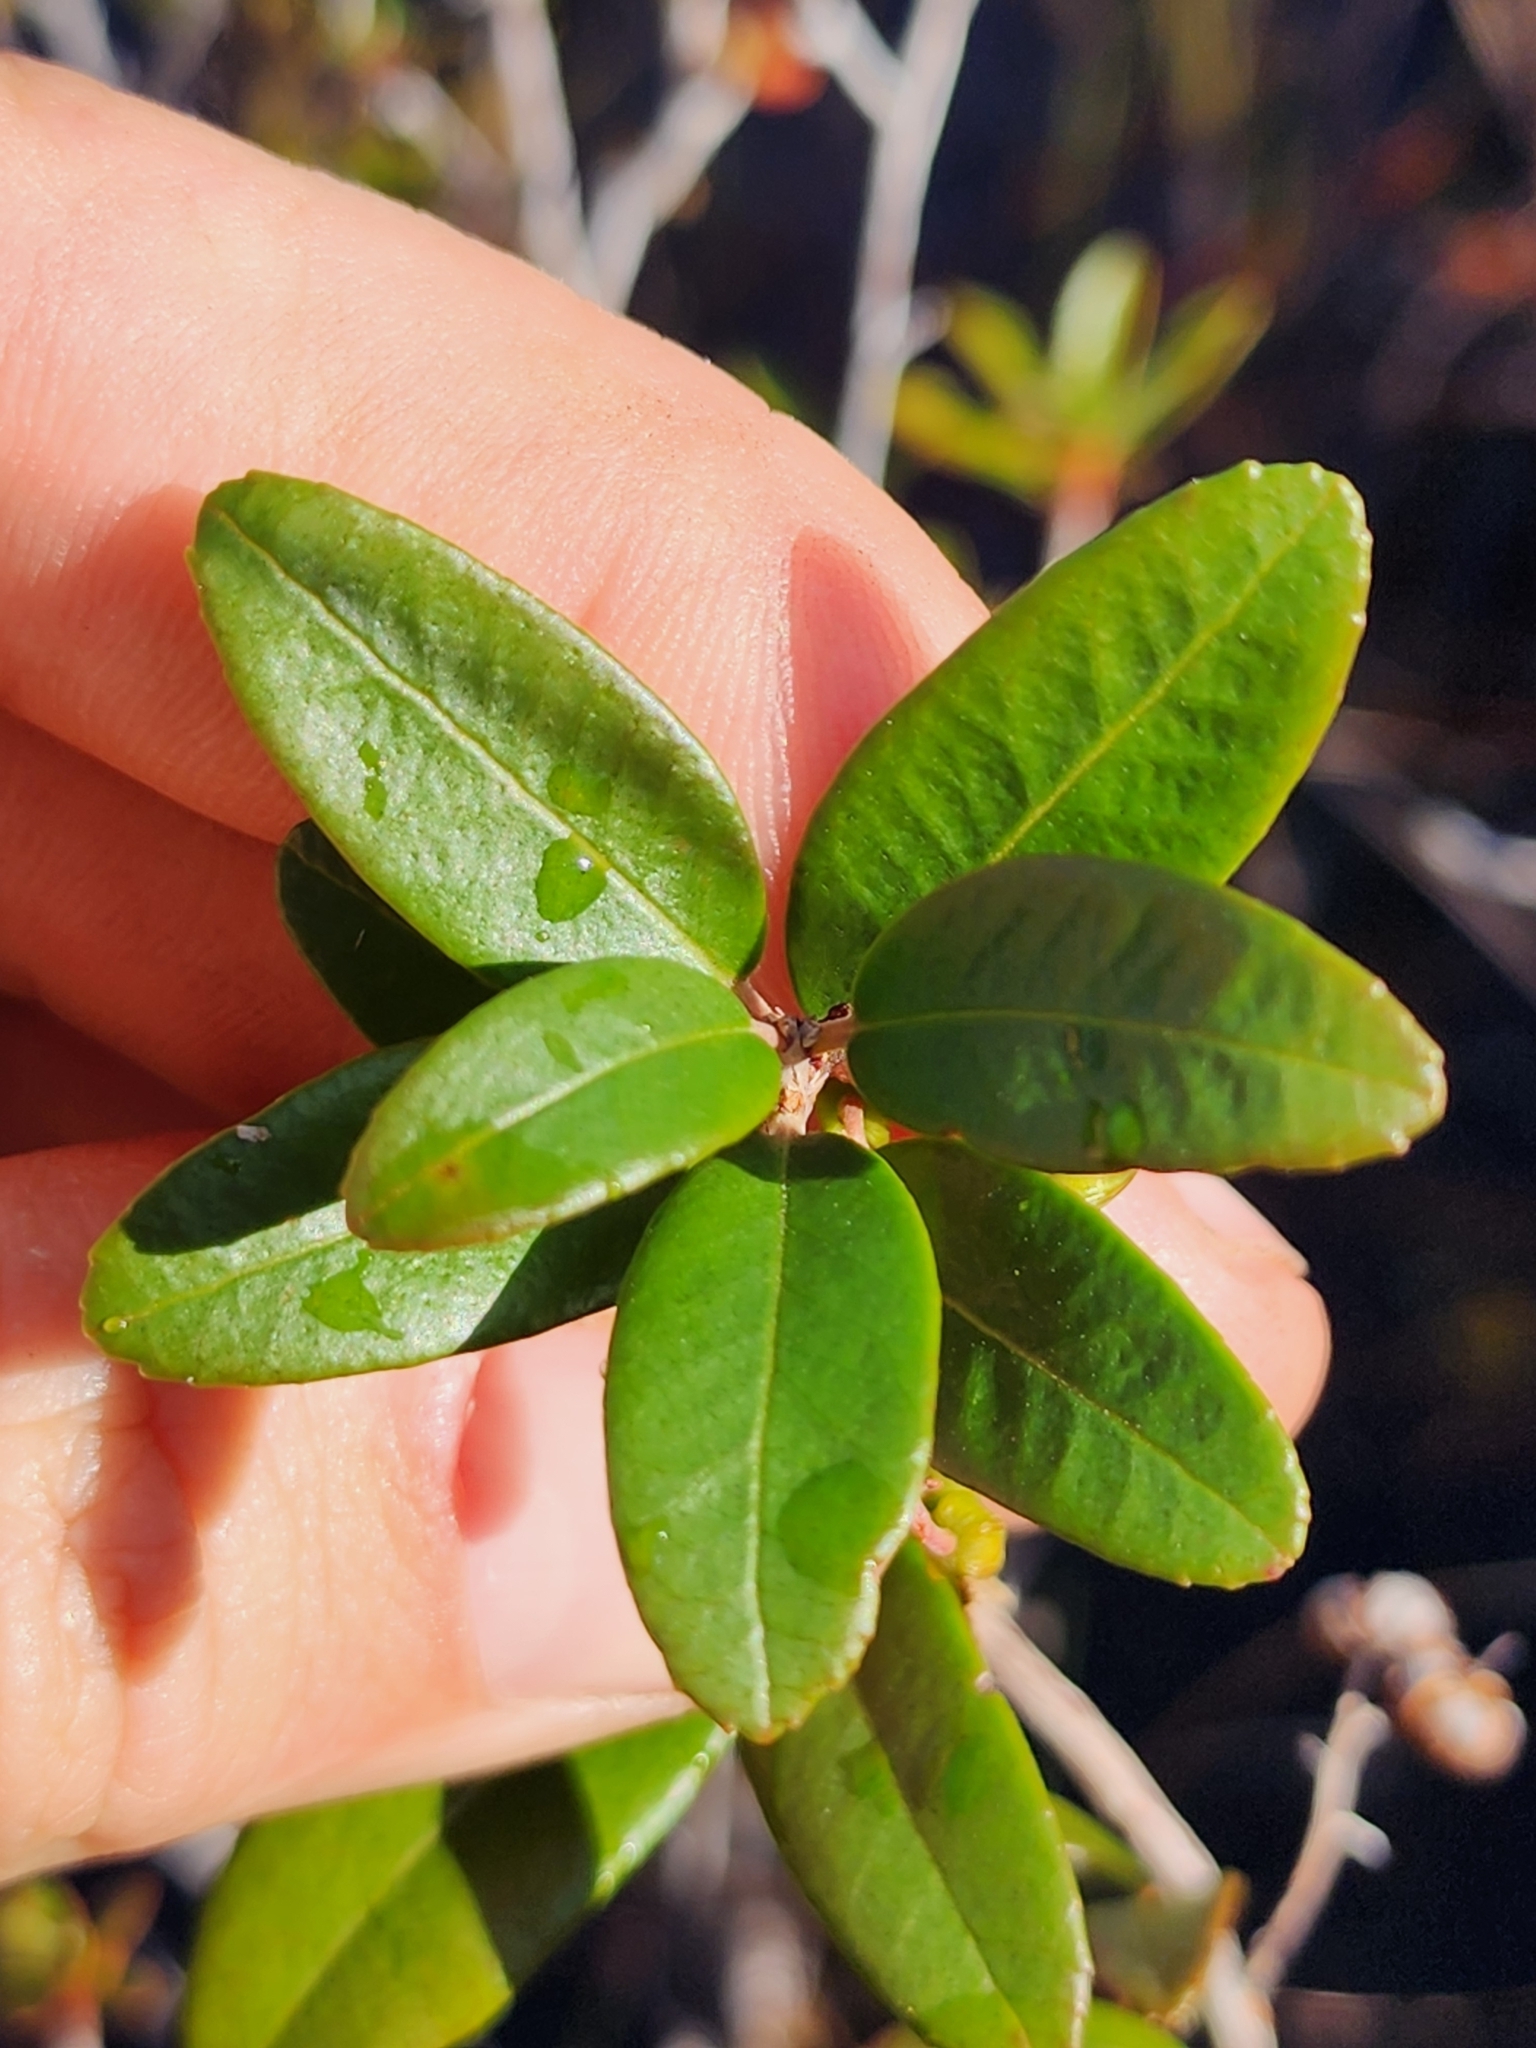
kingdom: Plantae
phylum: Tracheophyta
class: Magnoliopsida
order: Ericales
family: Ericaceae
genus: Pieris
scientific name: Pieris phillyreifolia
